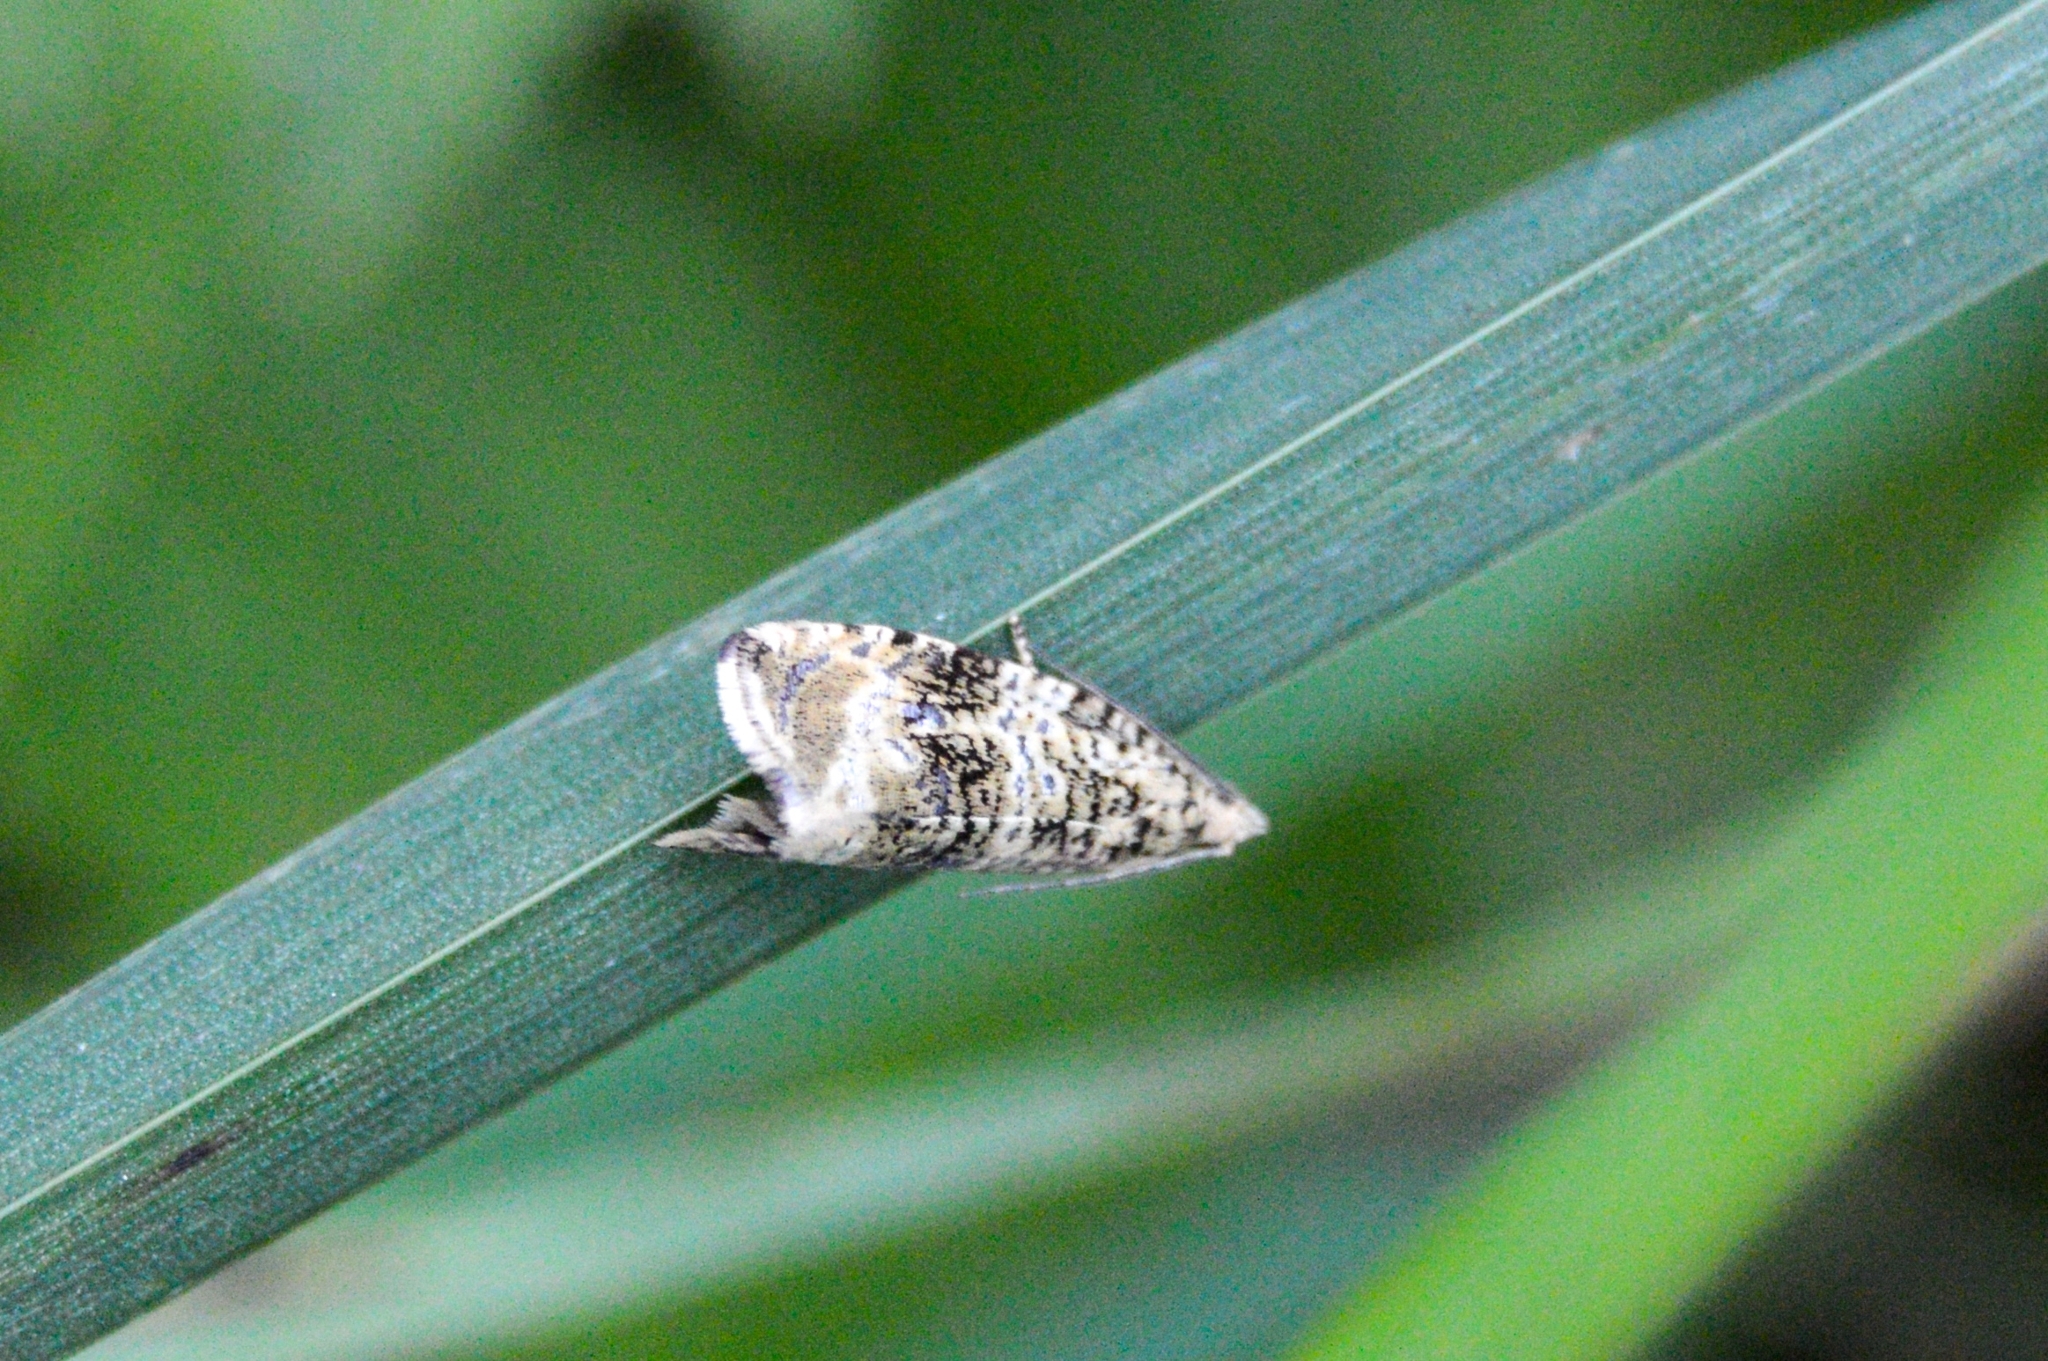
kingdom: Animalia
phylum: Arthropoda
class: Insecta
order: Lepidoptera
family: Tortricidae
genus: Syricoris
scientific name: Syricoris lacunana
